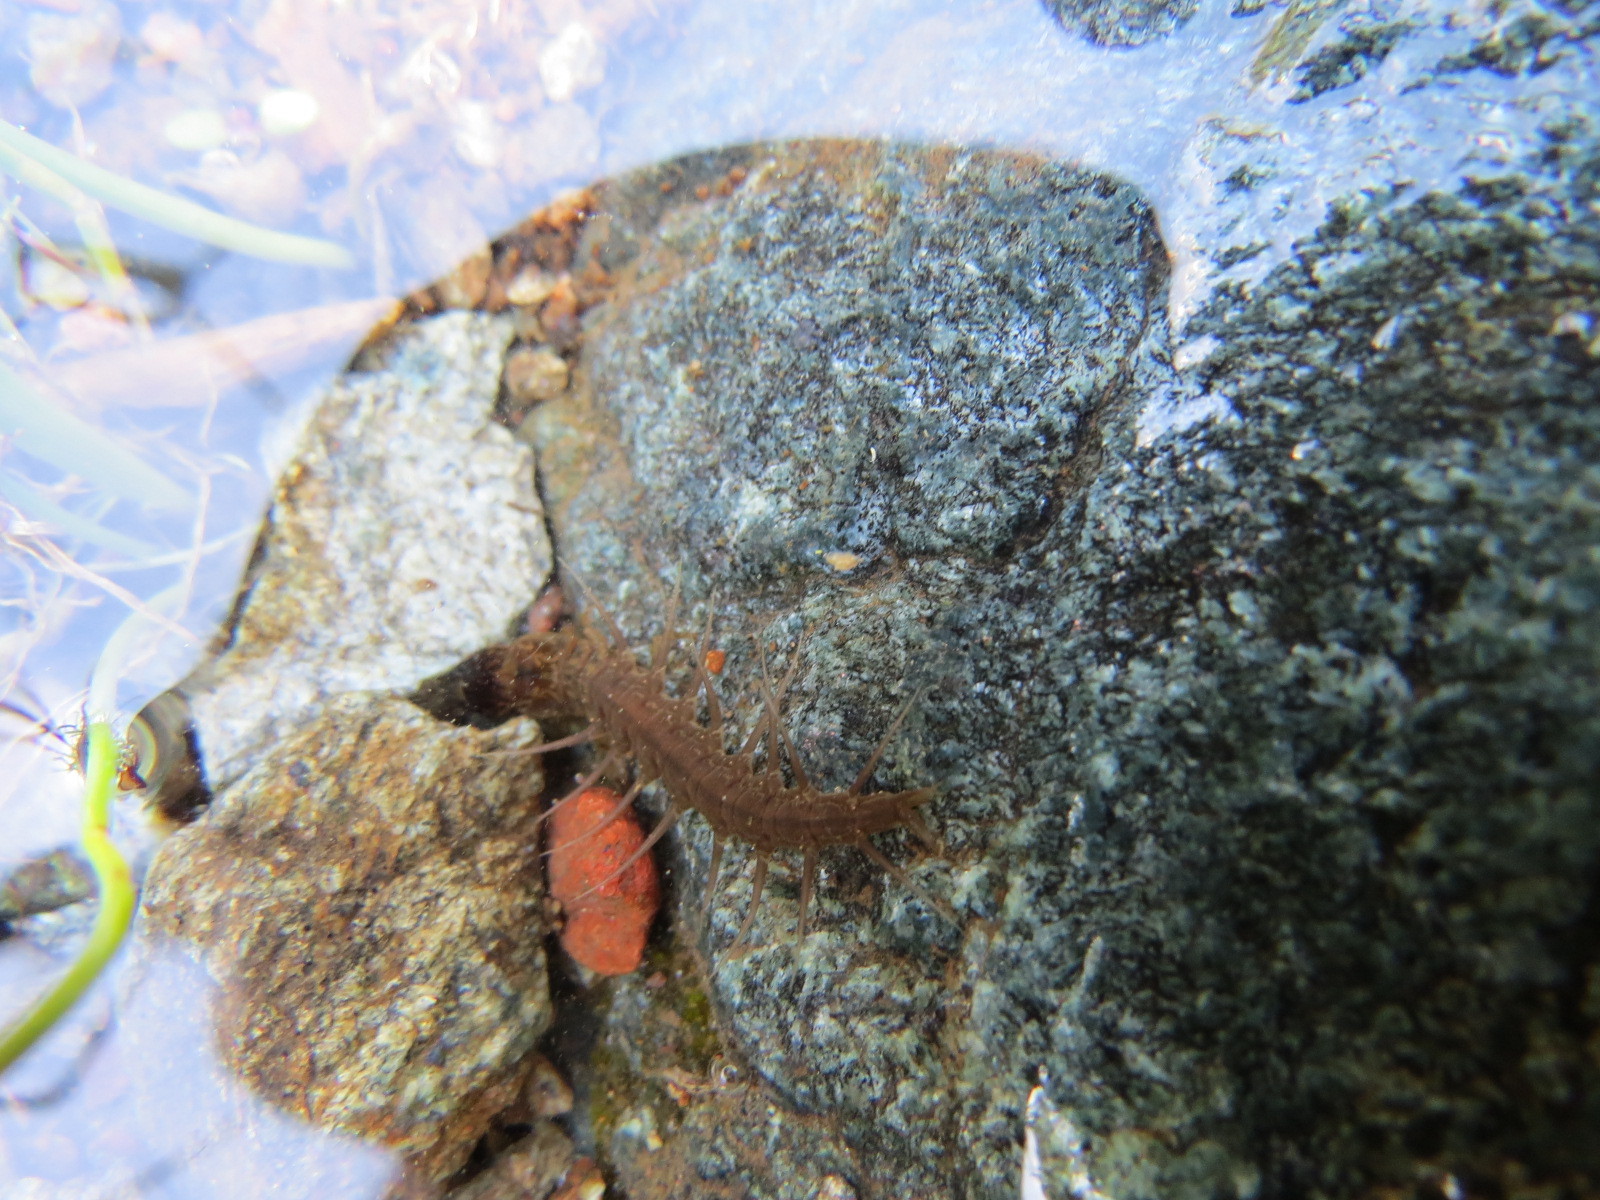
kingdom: Animalia
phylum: Arthropoda
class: Insecta
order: Megaloptera
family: Corydalidae
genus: Neohermes
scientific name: Neohermes californicus
